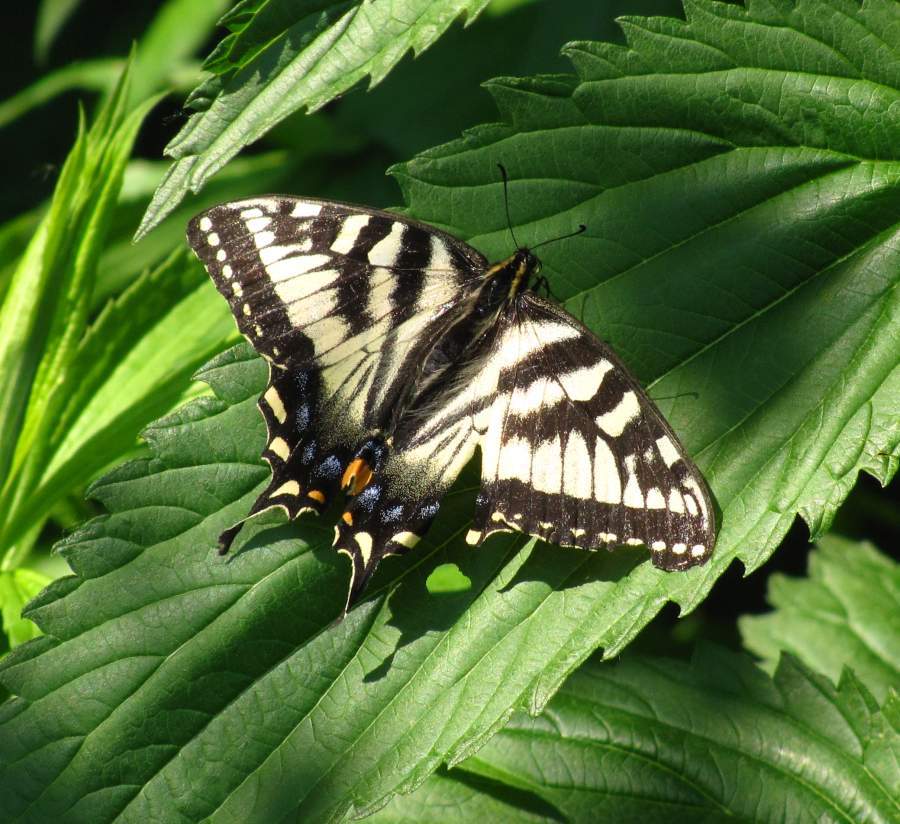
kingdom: Animalia
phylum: Arthropoda
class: Insecta
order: Lepidoptera
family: Papilionidae
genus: Papilio
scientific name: Papilio canadensis
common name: Canadian tiger swallowtail
